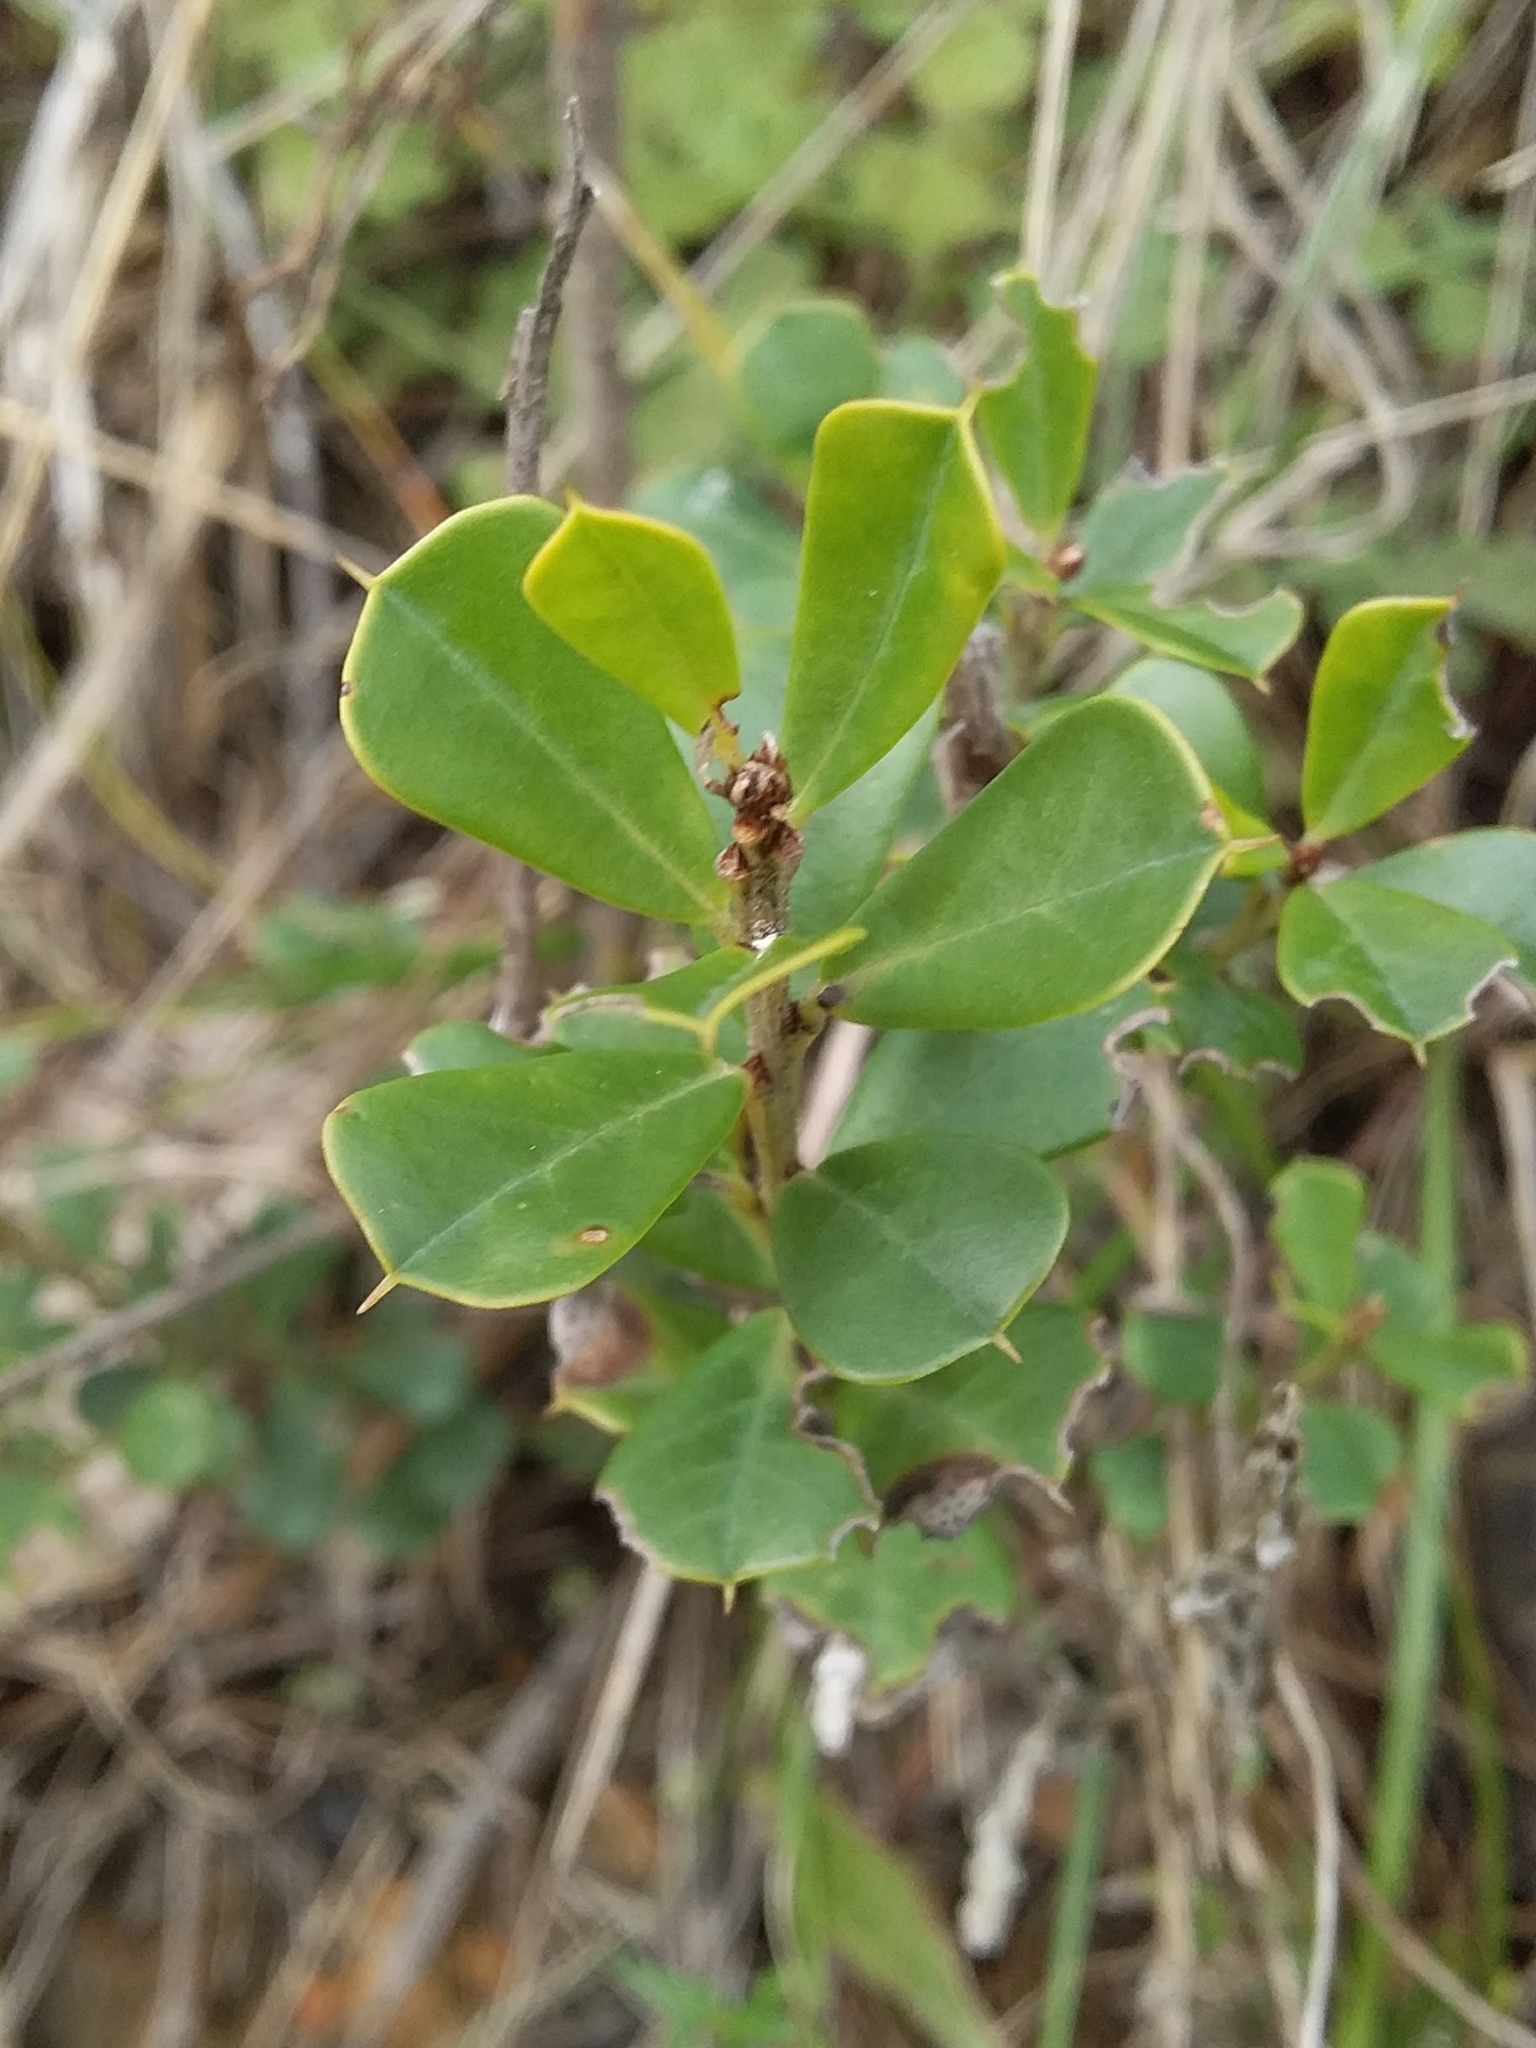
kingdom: Plantae
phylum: Tracheophyta
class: Magnoliopsida
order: Fabales
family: Fabaceae
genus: Pultenaea
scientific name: Pultenaea daphnoides
